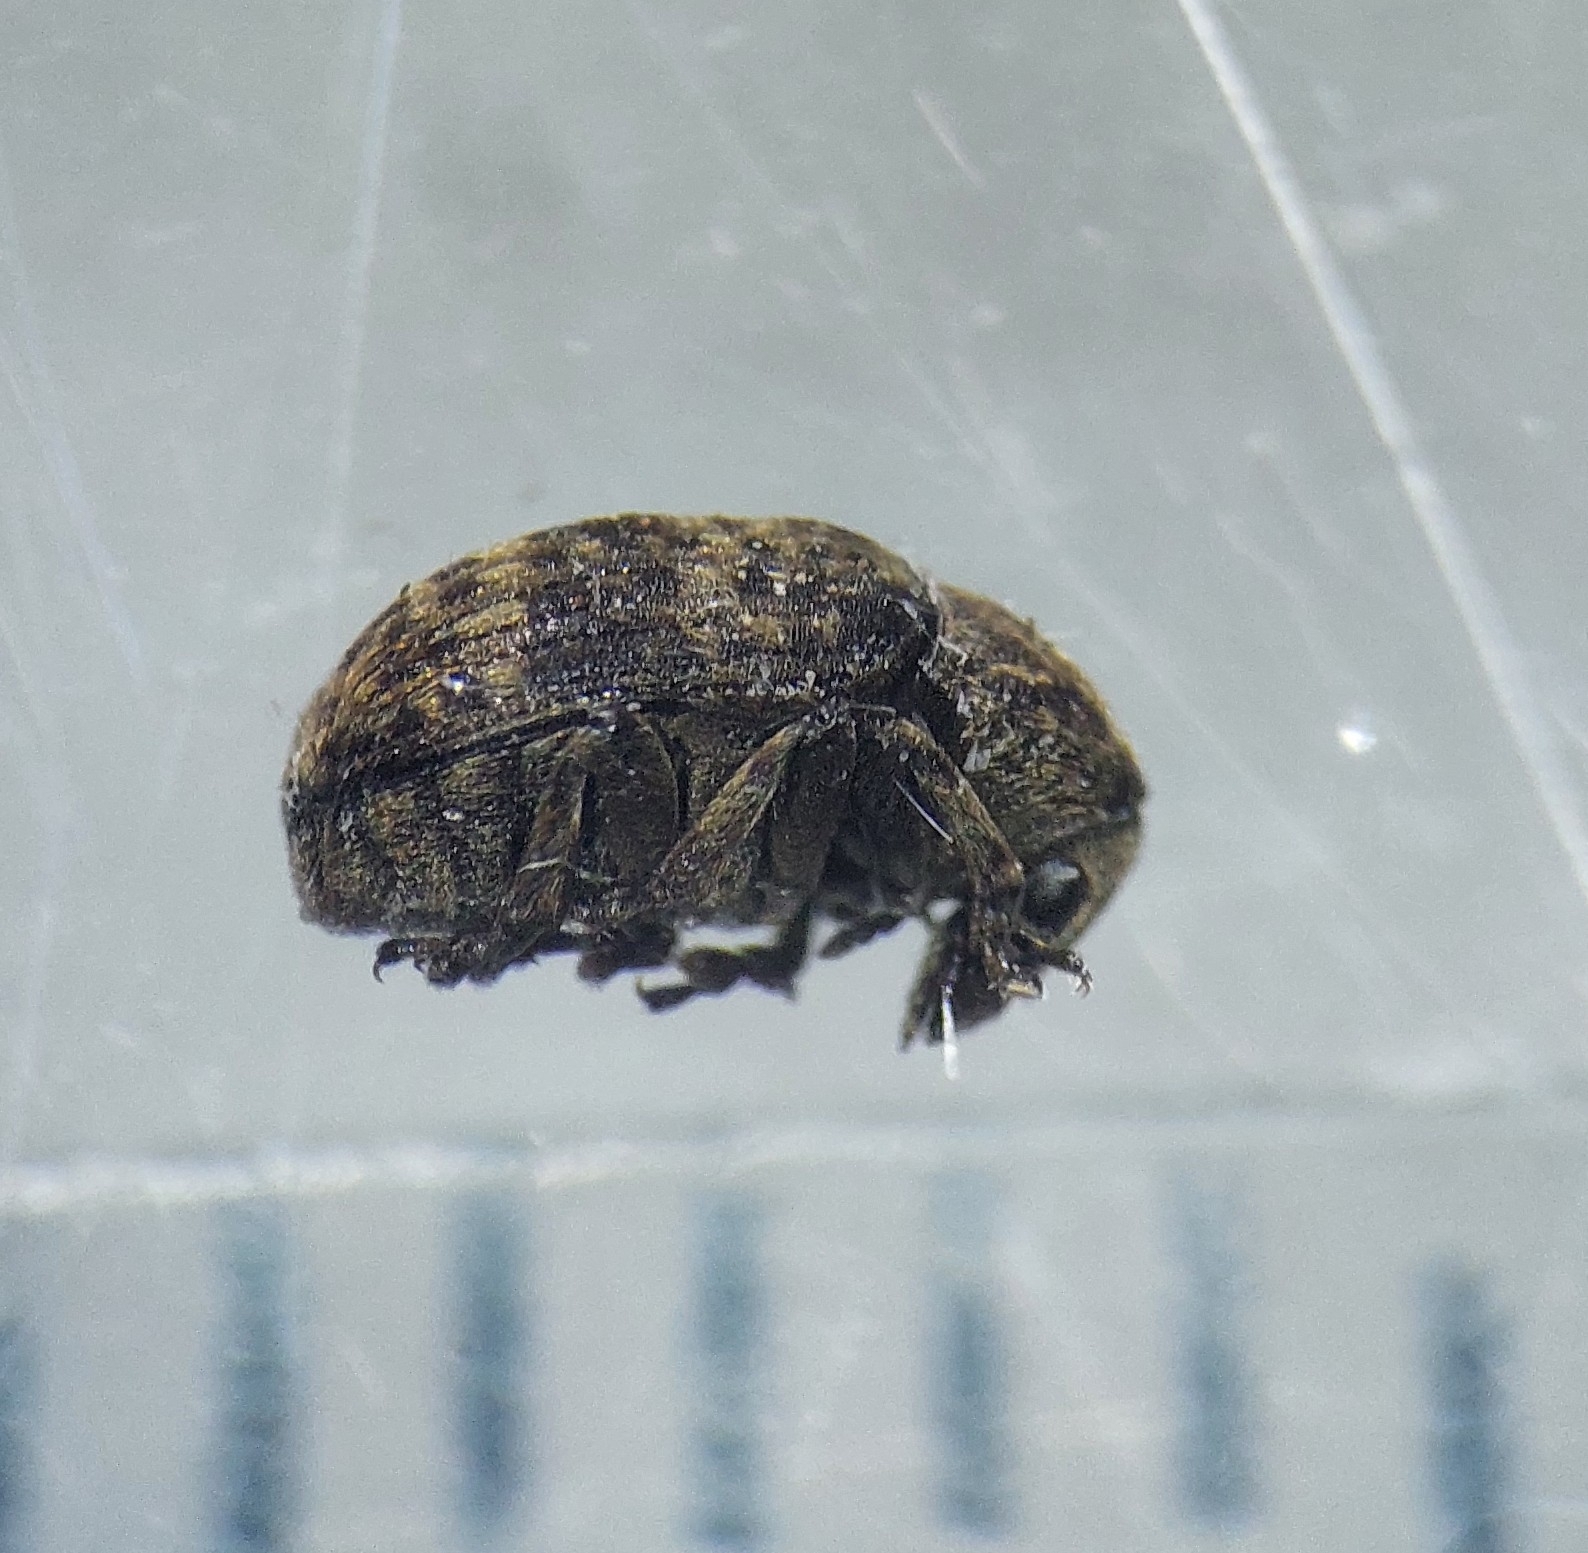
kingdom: Animalia
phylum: Arthropoda
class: Insecta
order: Coleoptera
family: Anthribidae
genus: Anthribus
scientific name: Anthribus nebulosus
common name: Fungus weevil
